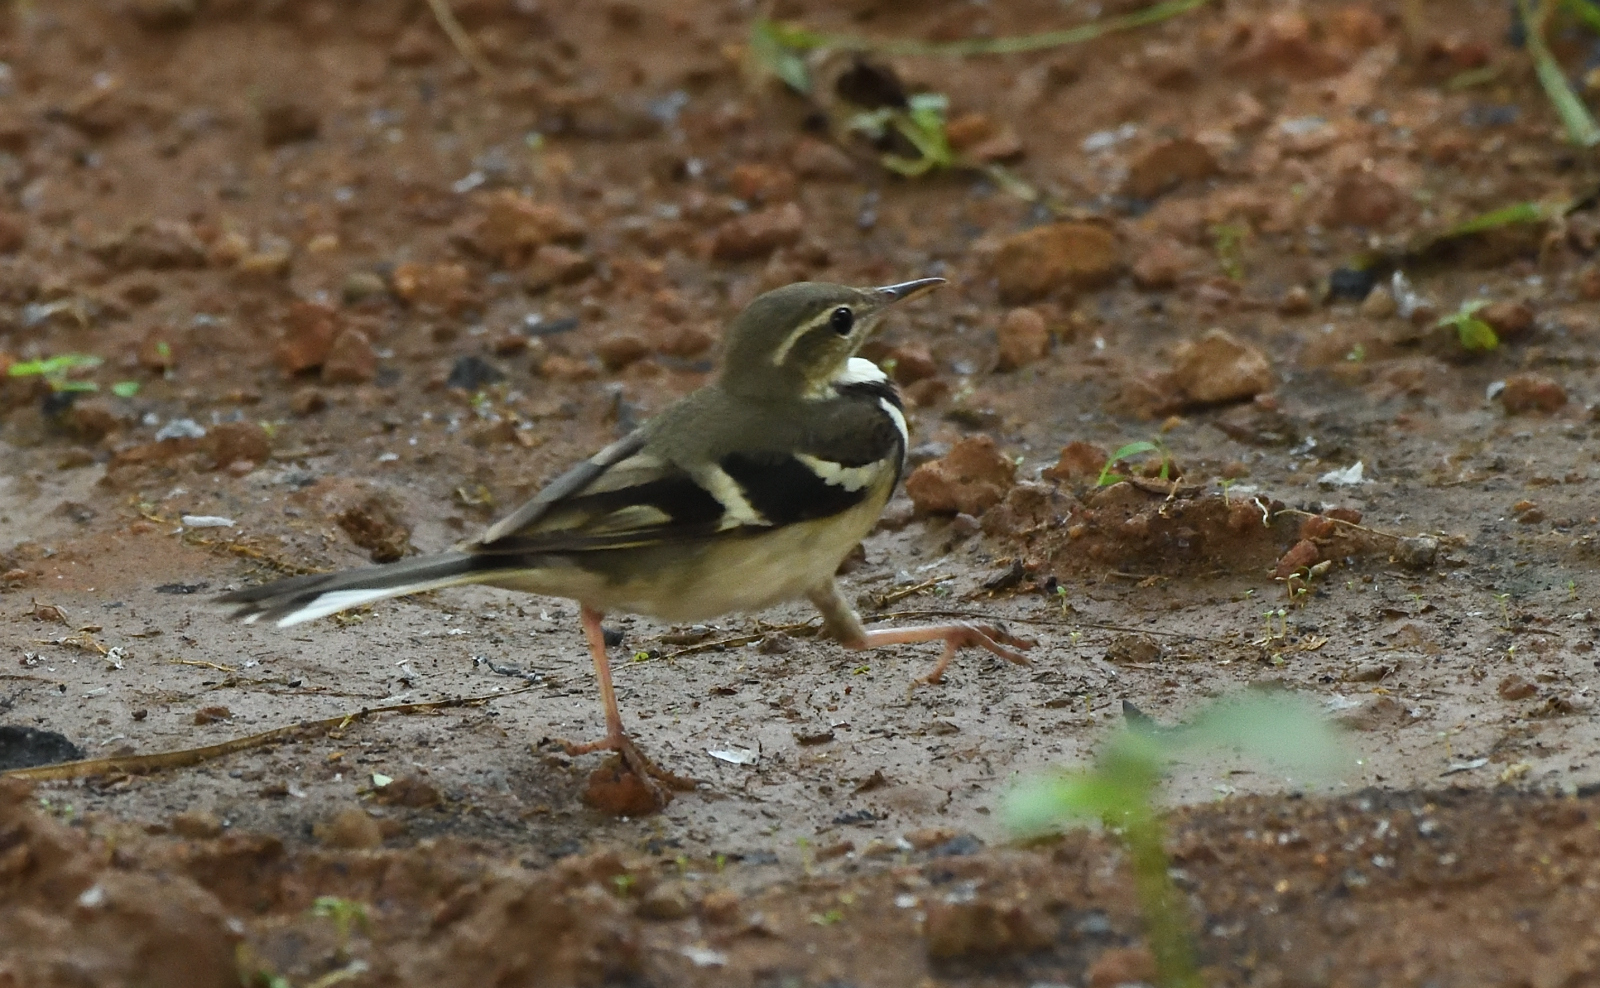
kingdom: Animalia
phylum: Chordata
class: Aves
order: Passeriformes
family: Motacillidae
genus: Dendronanthus
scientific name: Dendronanthus indicus
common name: Forest wagtail
